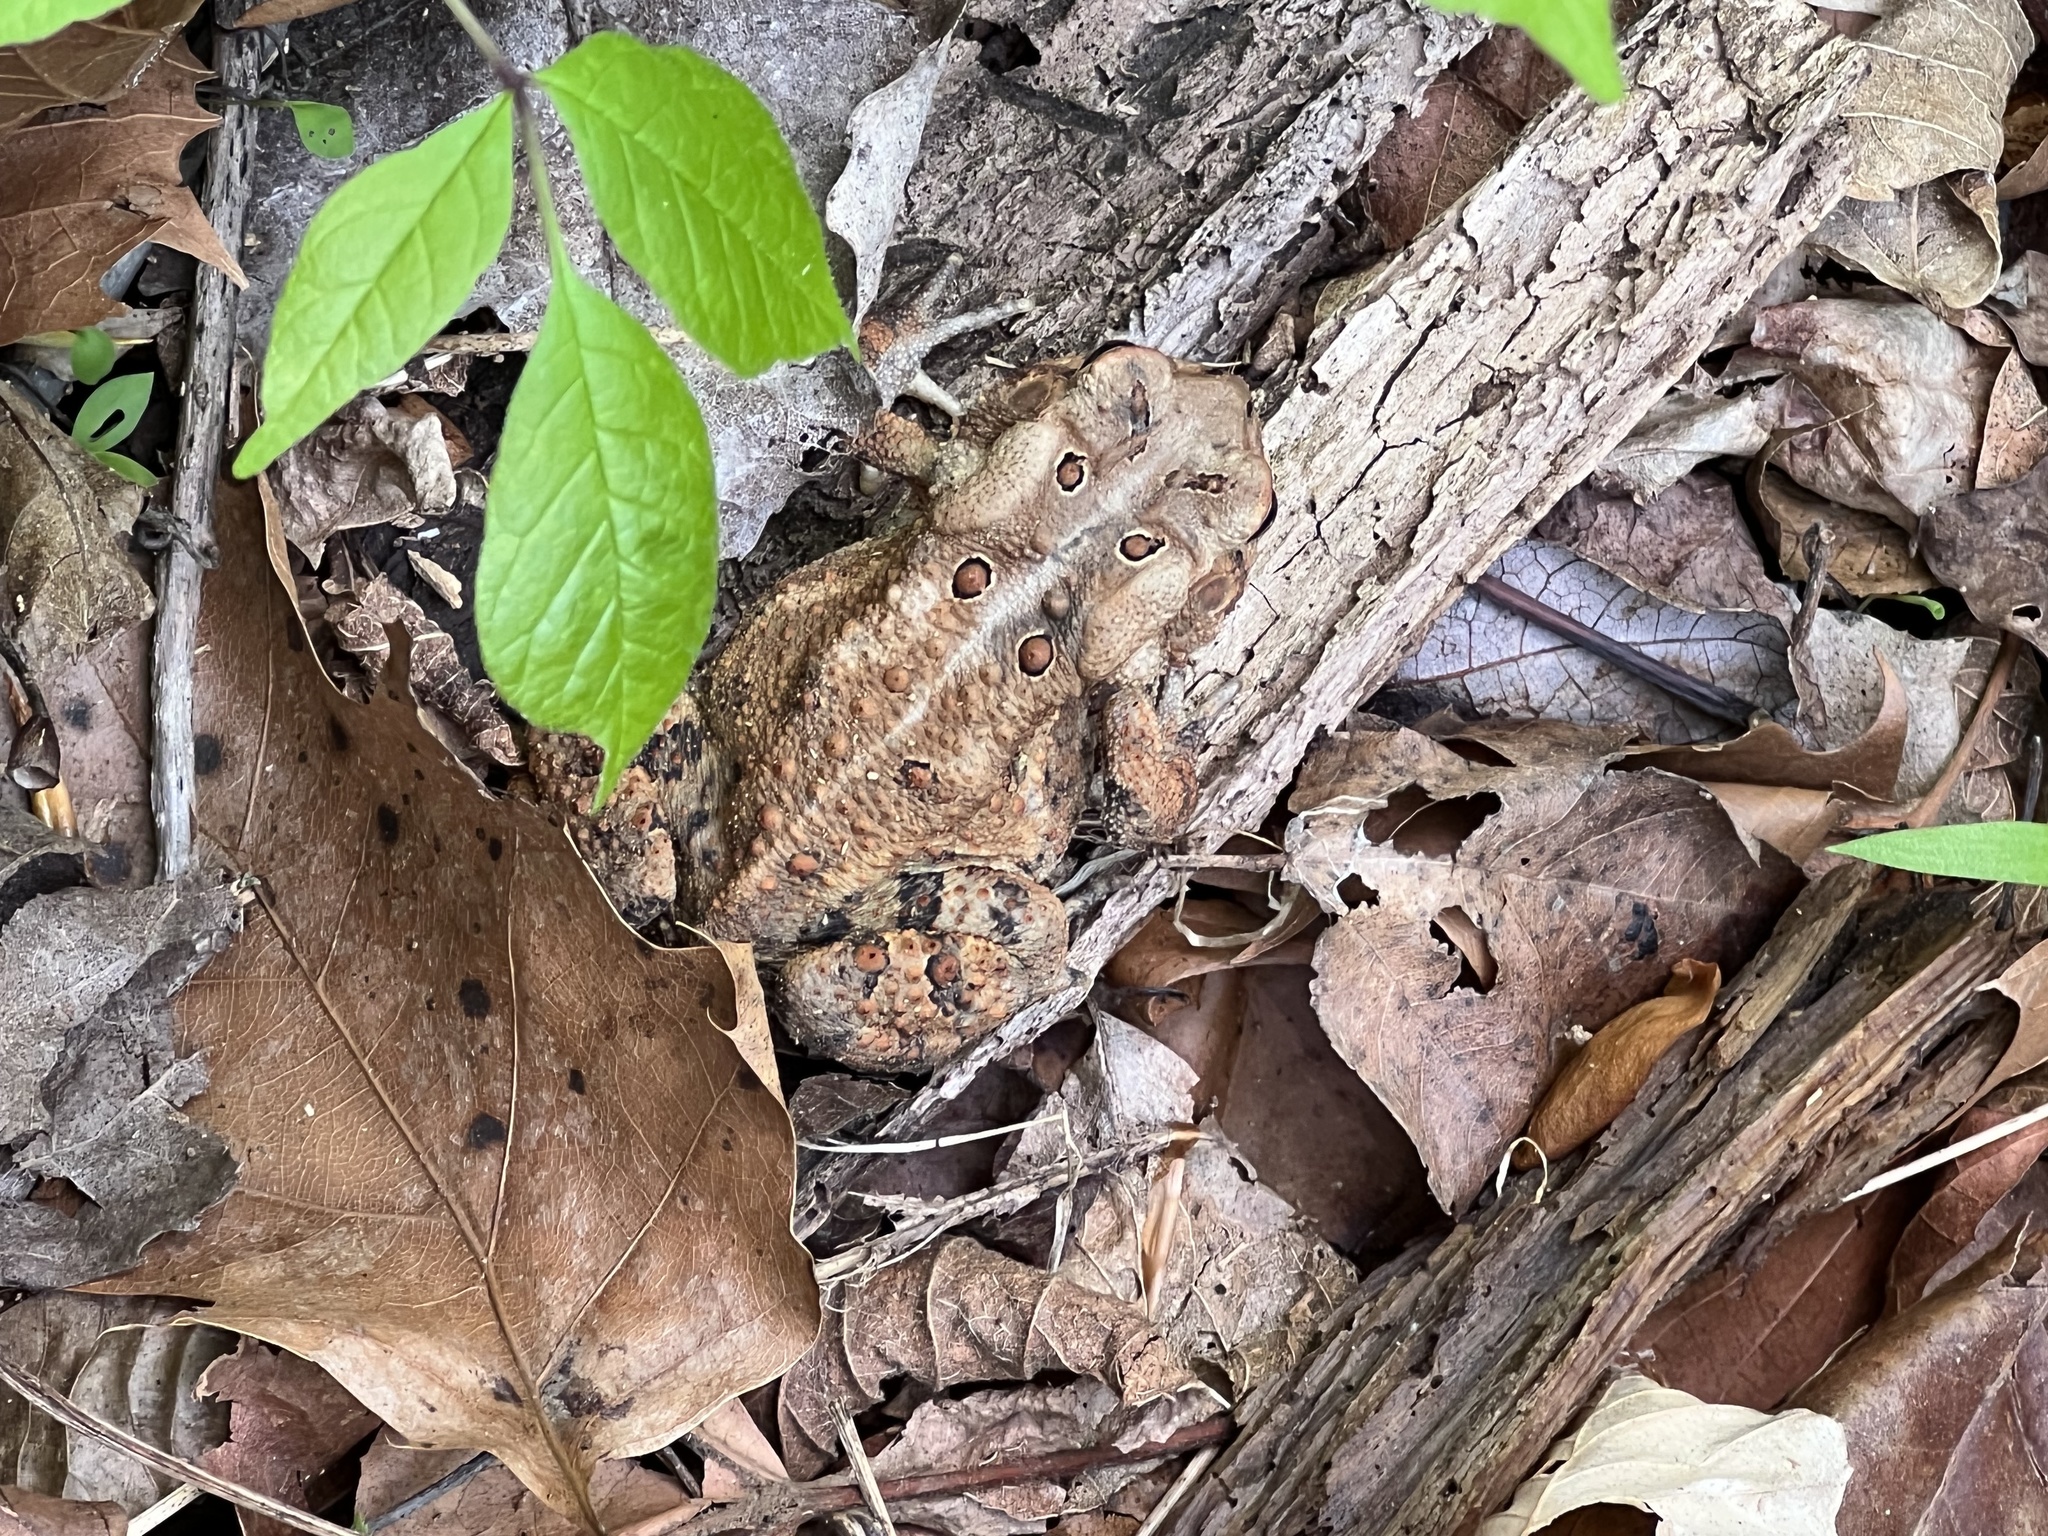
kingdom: Animalia
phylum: Chordata
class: Amphibia
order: Anura
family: Bufonidae
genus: Anaxyrus
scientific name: Anaxyrus americanus
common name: American toad
